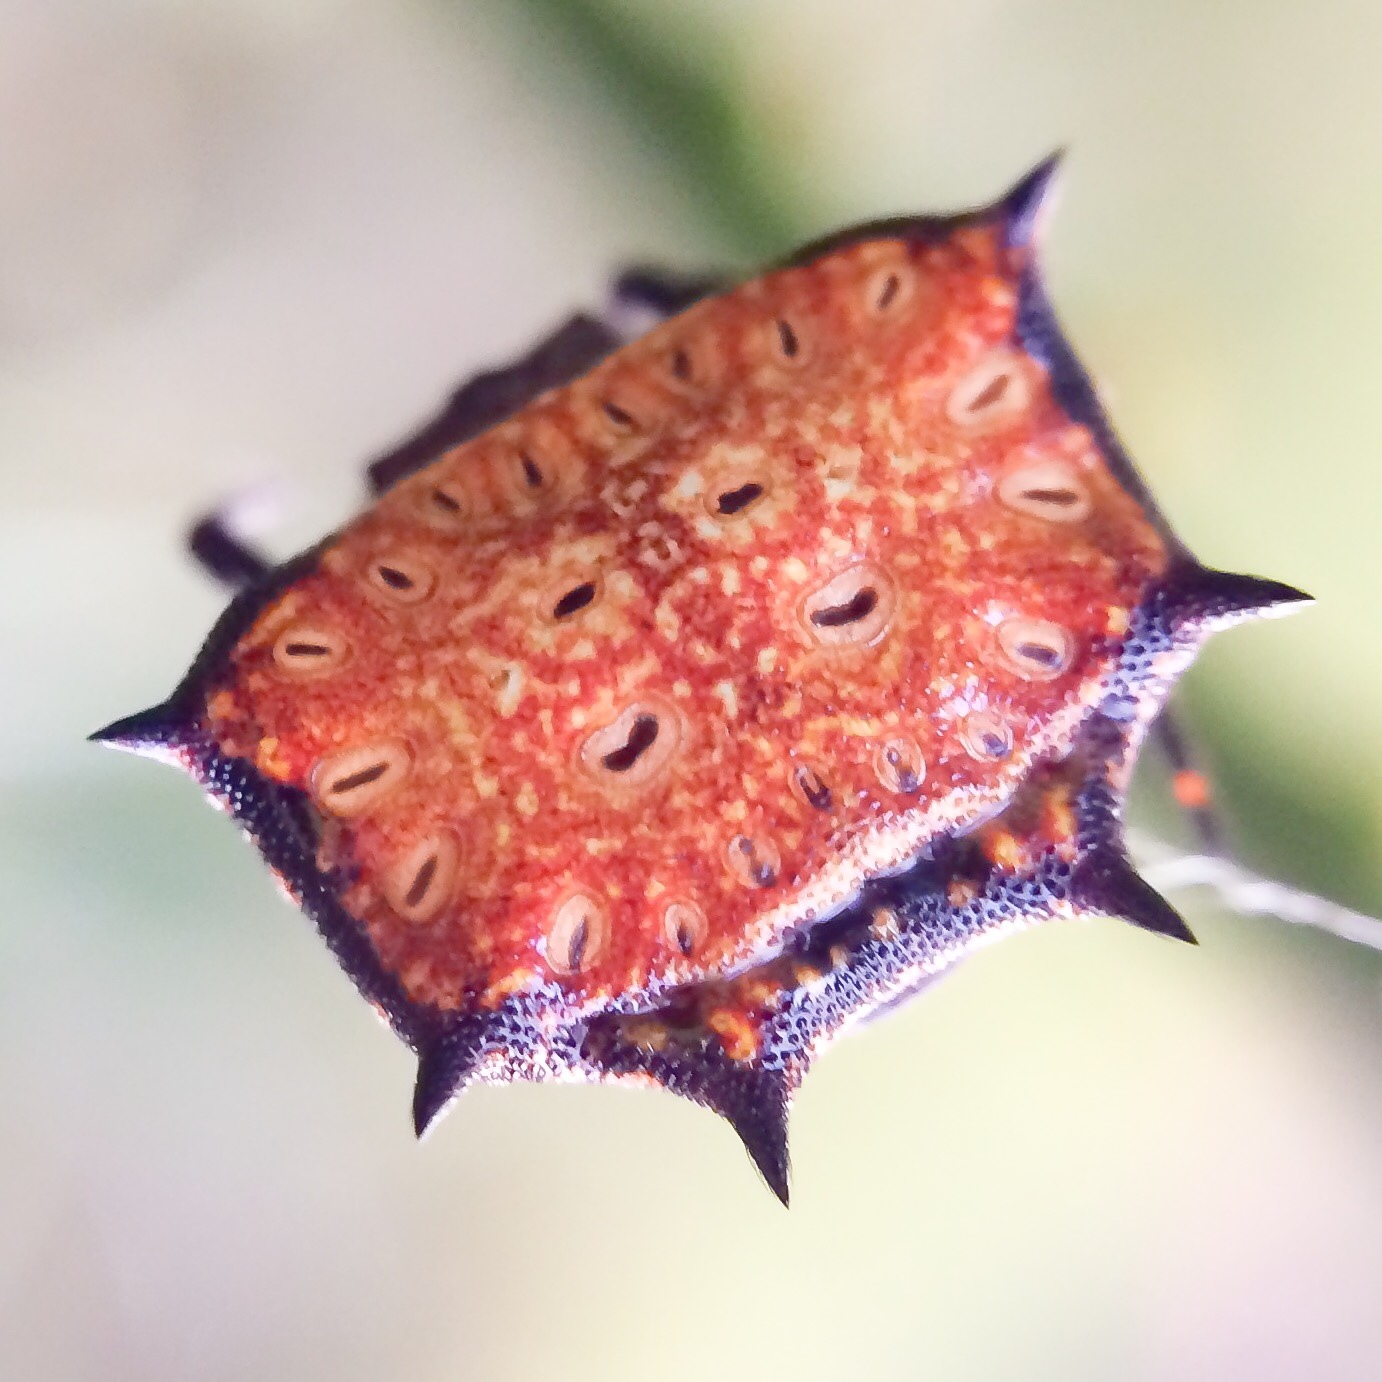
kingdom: Animalia
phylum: Arthropoda
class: Arachnida
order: Araneae
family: Araneidae
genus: Isoxya
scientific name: Isoxya tabulata
